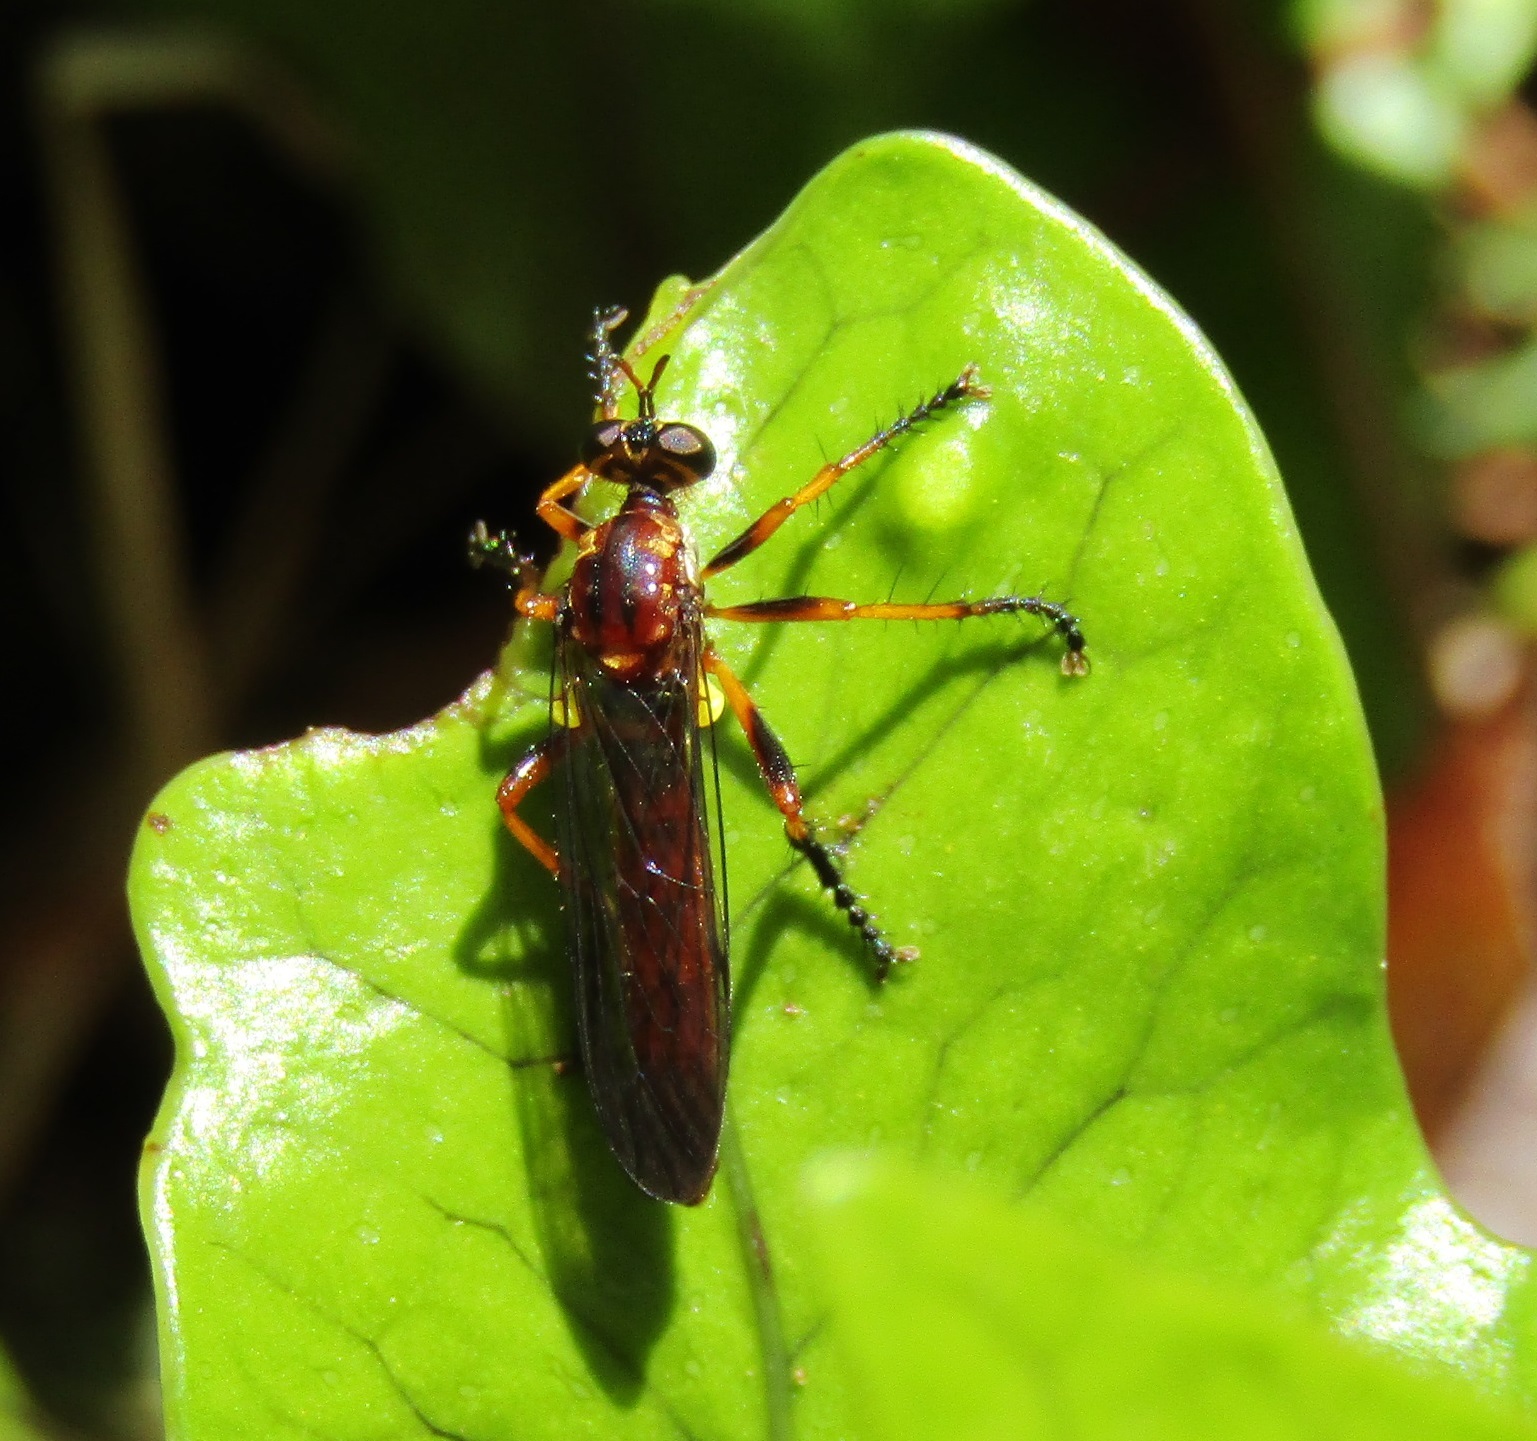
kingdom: Animalia
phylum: Arthropoda
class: Insecta
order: Diptera
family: Asilidae
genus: Saropogon
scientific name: Saropogon antipodus
